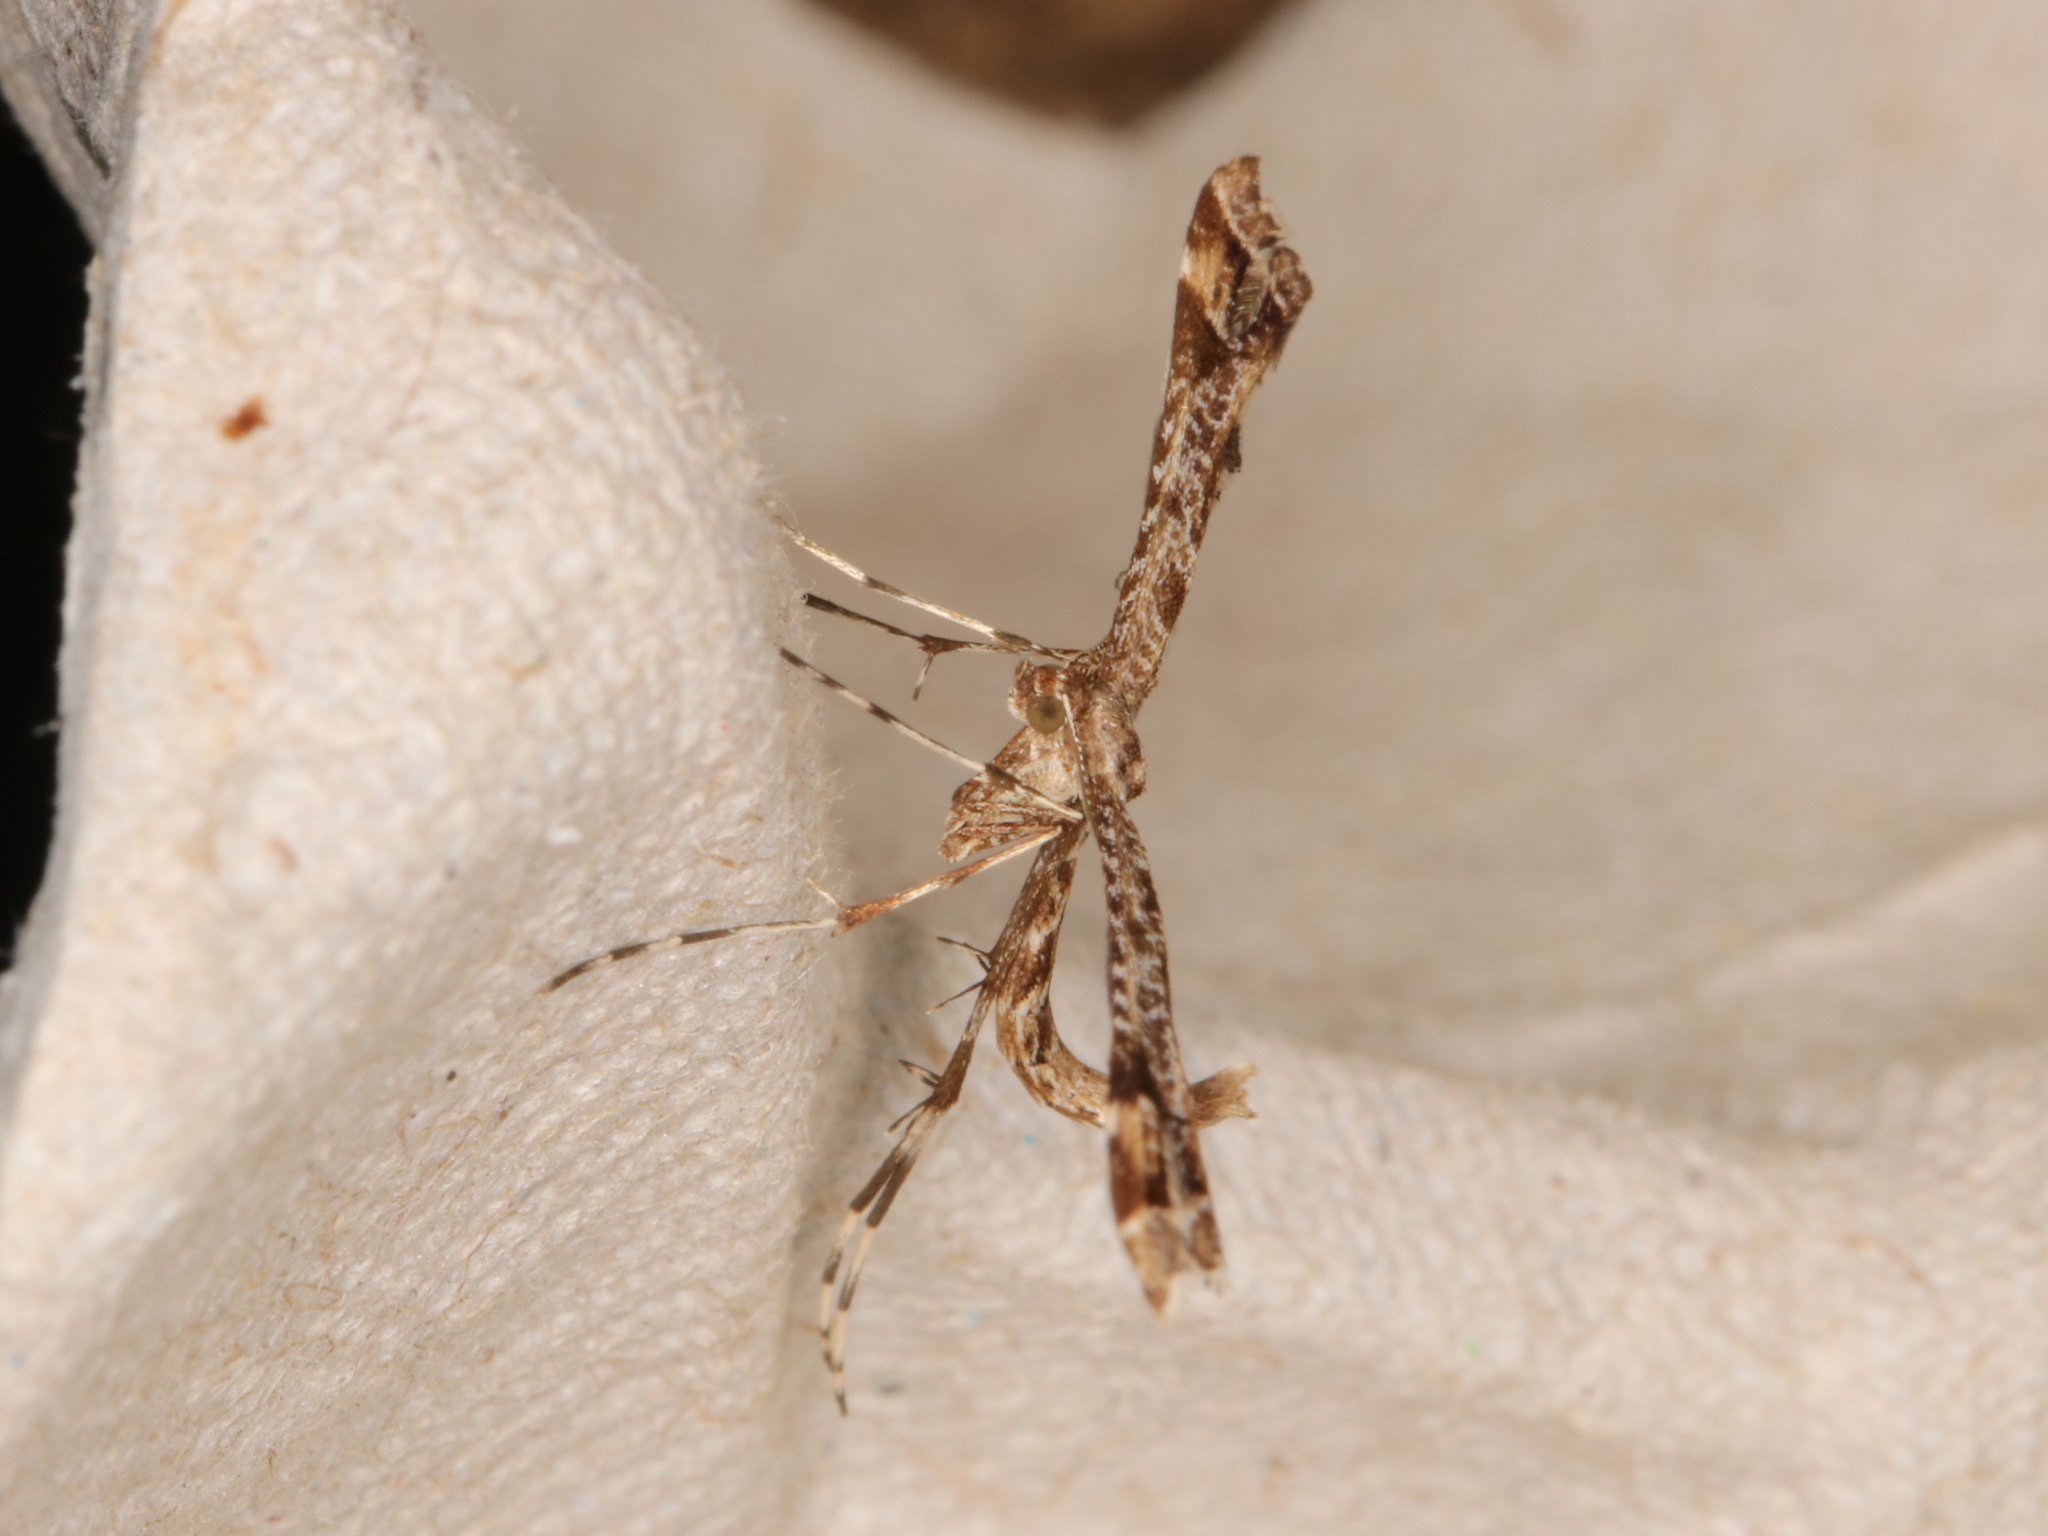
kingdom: Animalia
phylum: Arthropoda
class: Insecta
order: Lepidoptera
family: Pterophoridae
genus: Amblyptilia
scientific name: Amblyptilia acanthadactyla
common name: Beautiful plume
